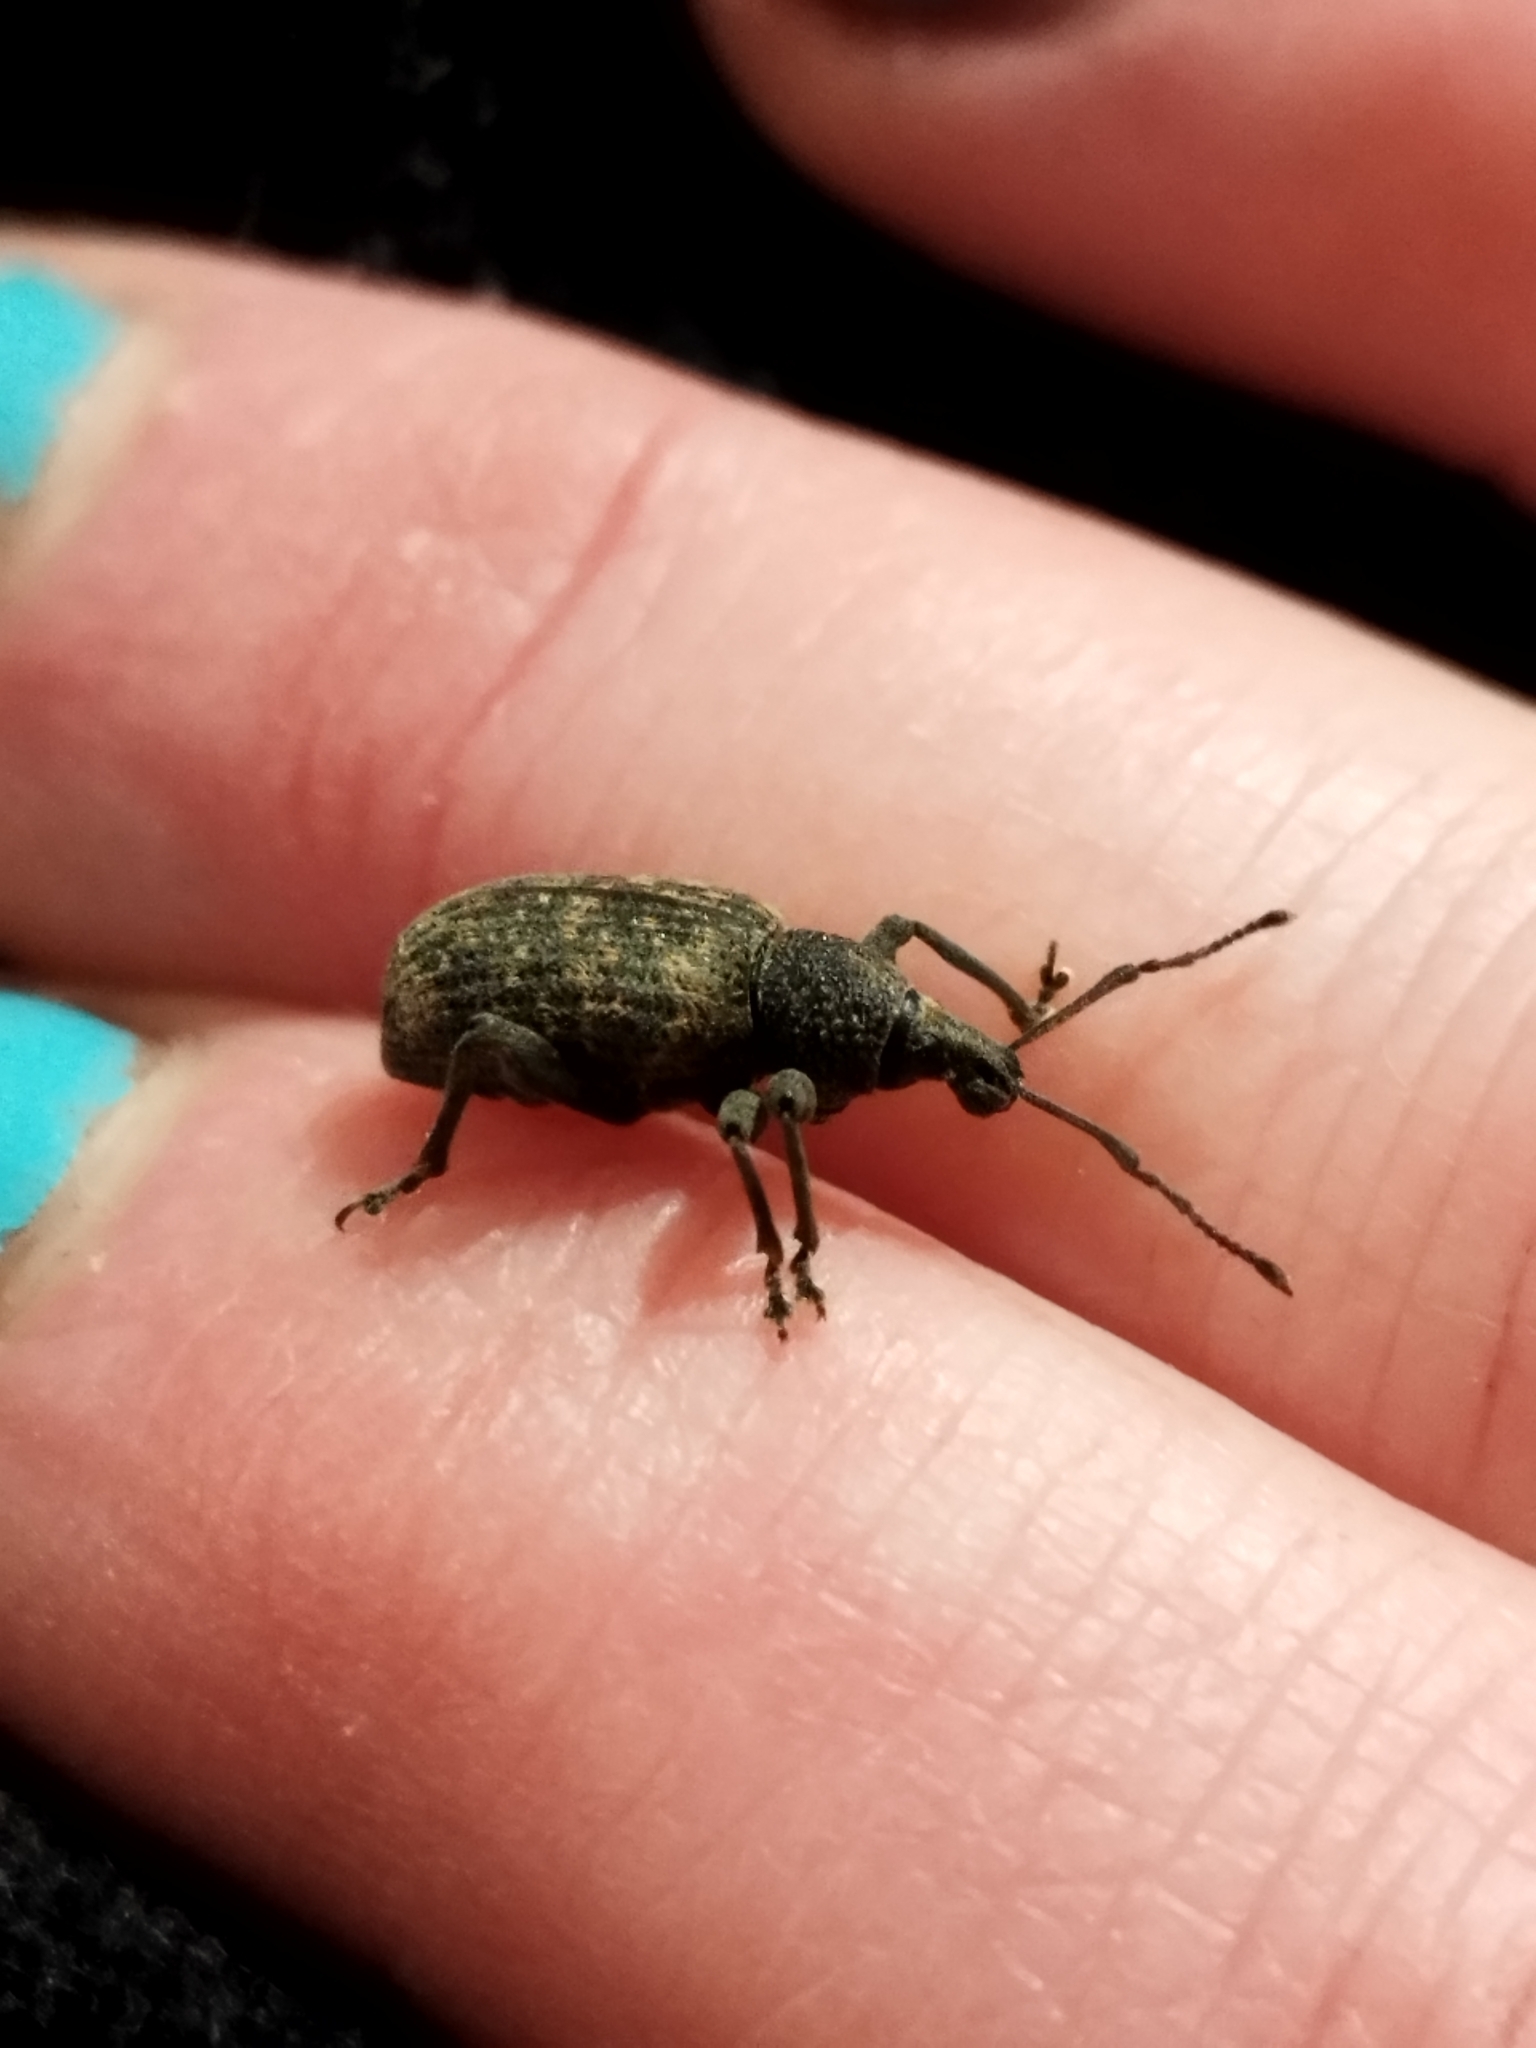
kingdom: Animalia
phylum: Arthropoda
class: Insecta
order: Coleoptera
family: Curculionidae
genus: Otiorhynchus
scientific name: Otiorhynchus sulcatus
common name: Black vine weevil
